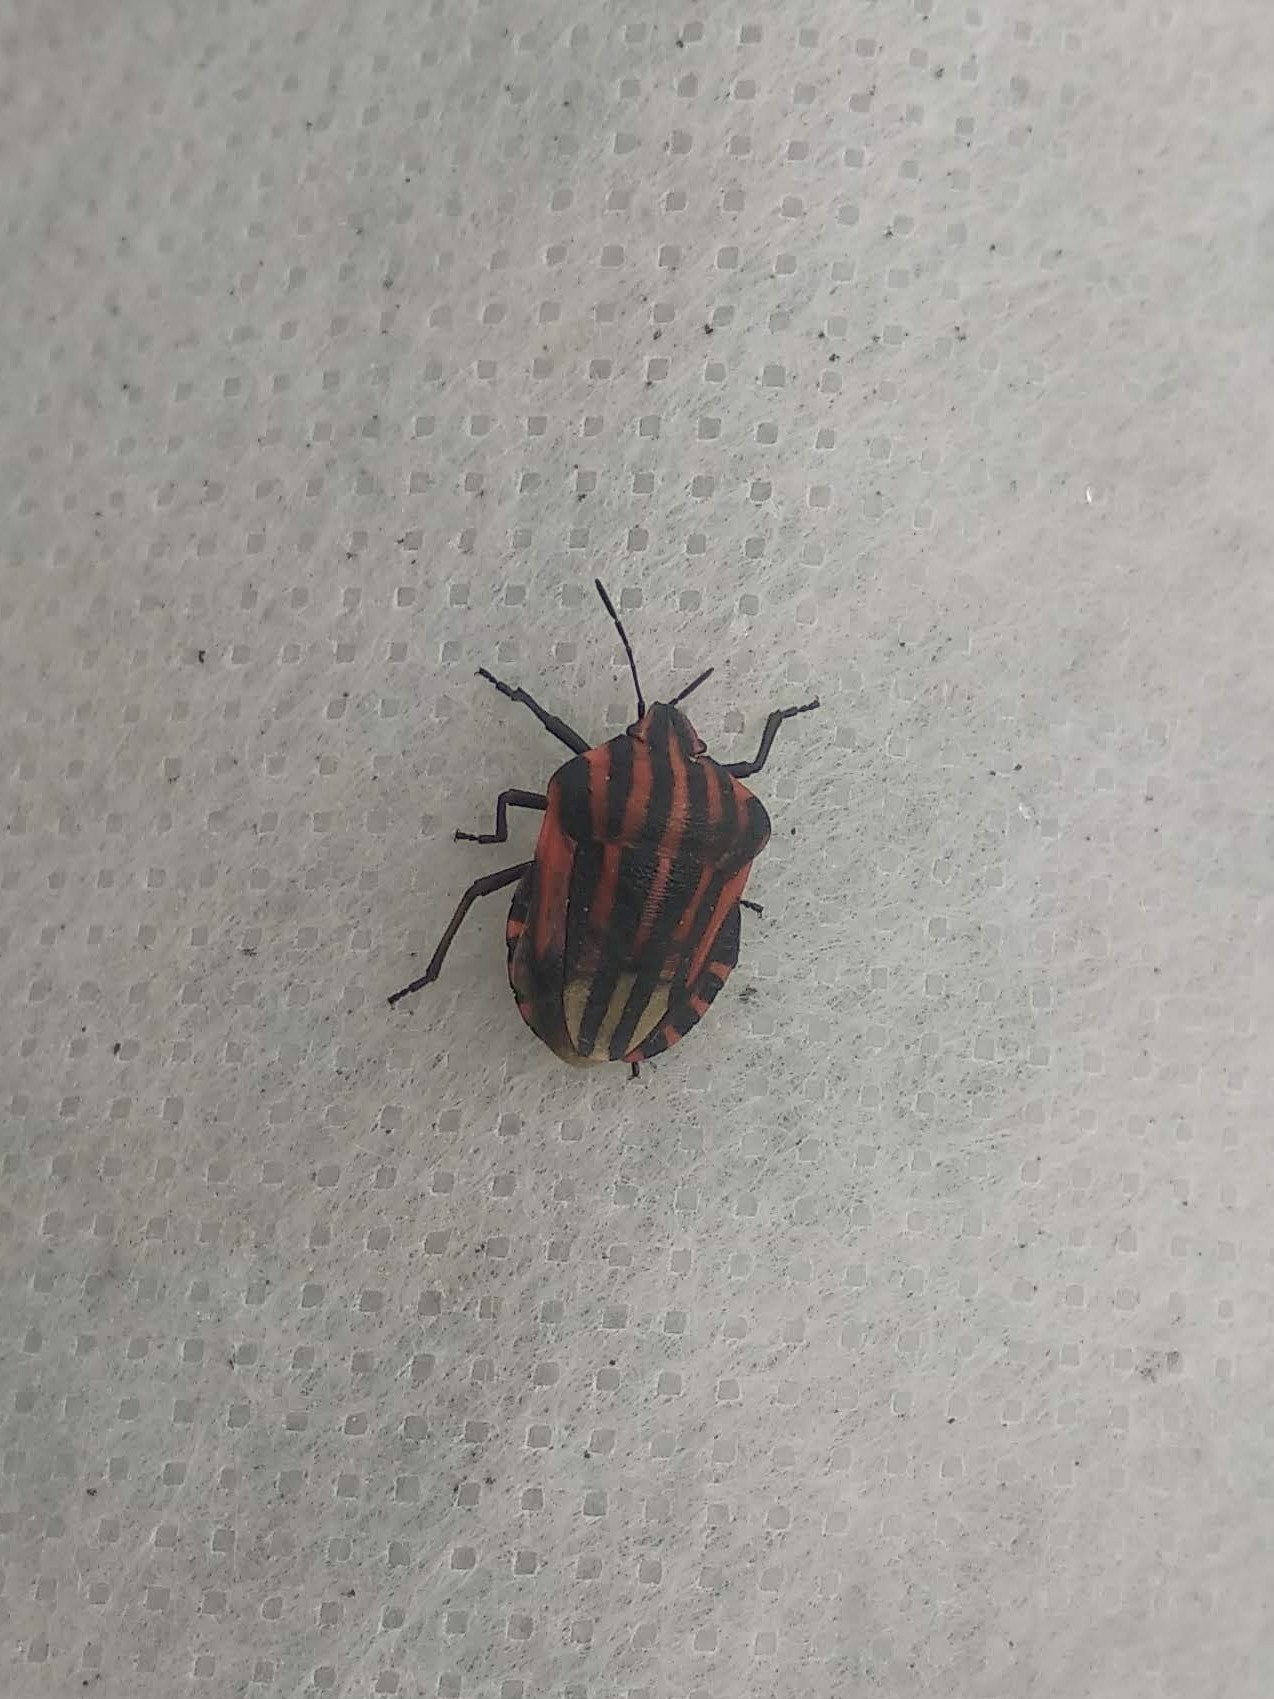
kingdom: Animalia
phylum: Arthropoda
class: Insecta
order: Hemiptera
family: Pentatomidae
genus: Graphosoma
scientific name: Graphosoma italicum
